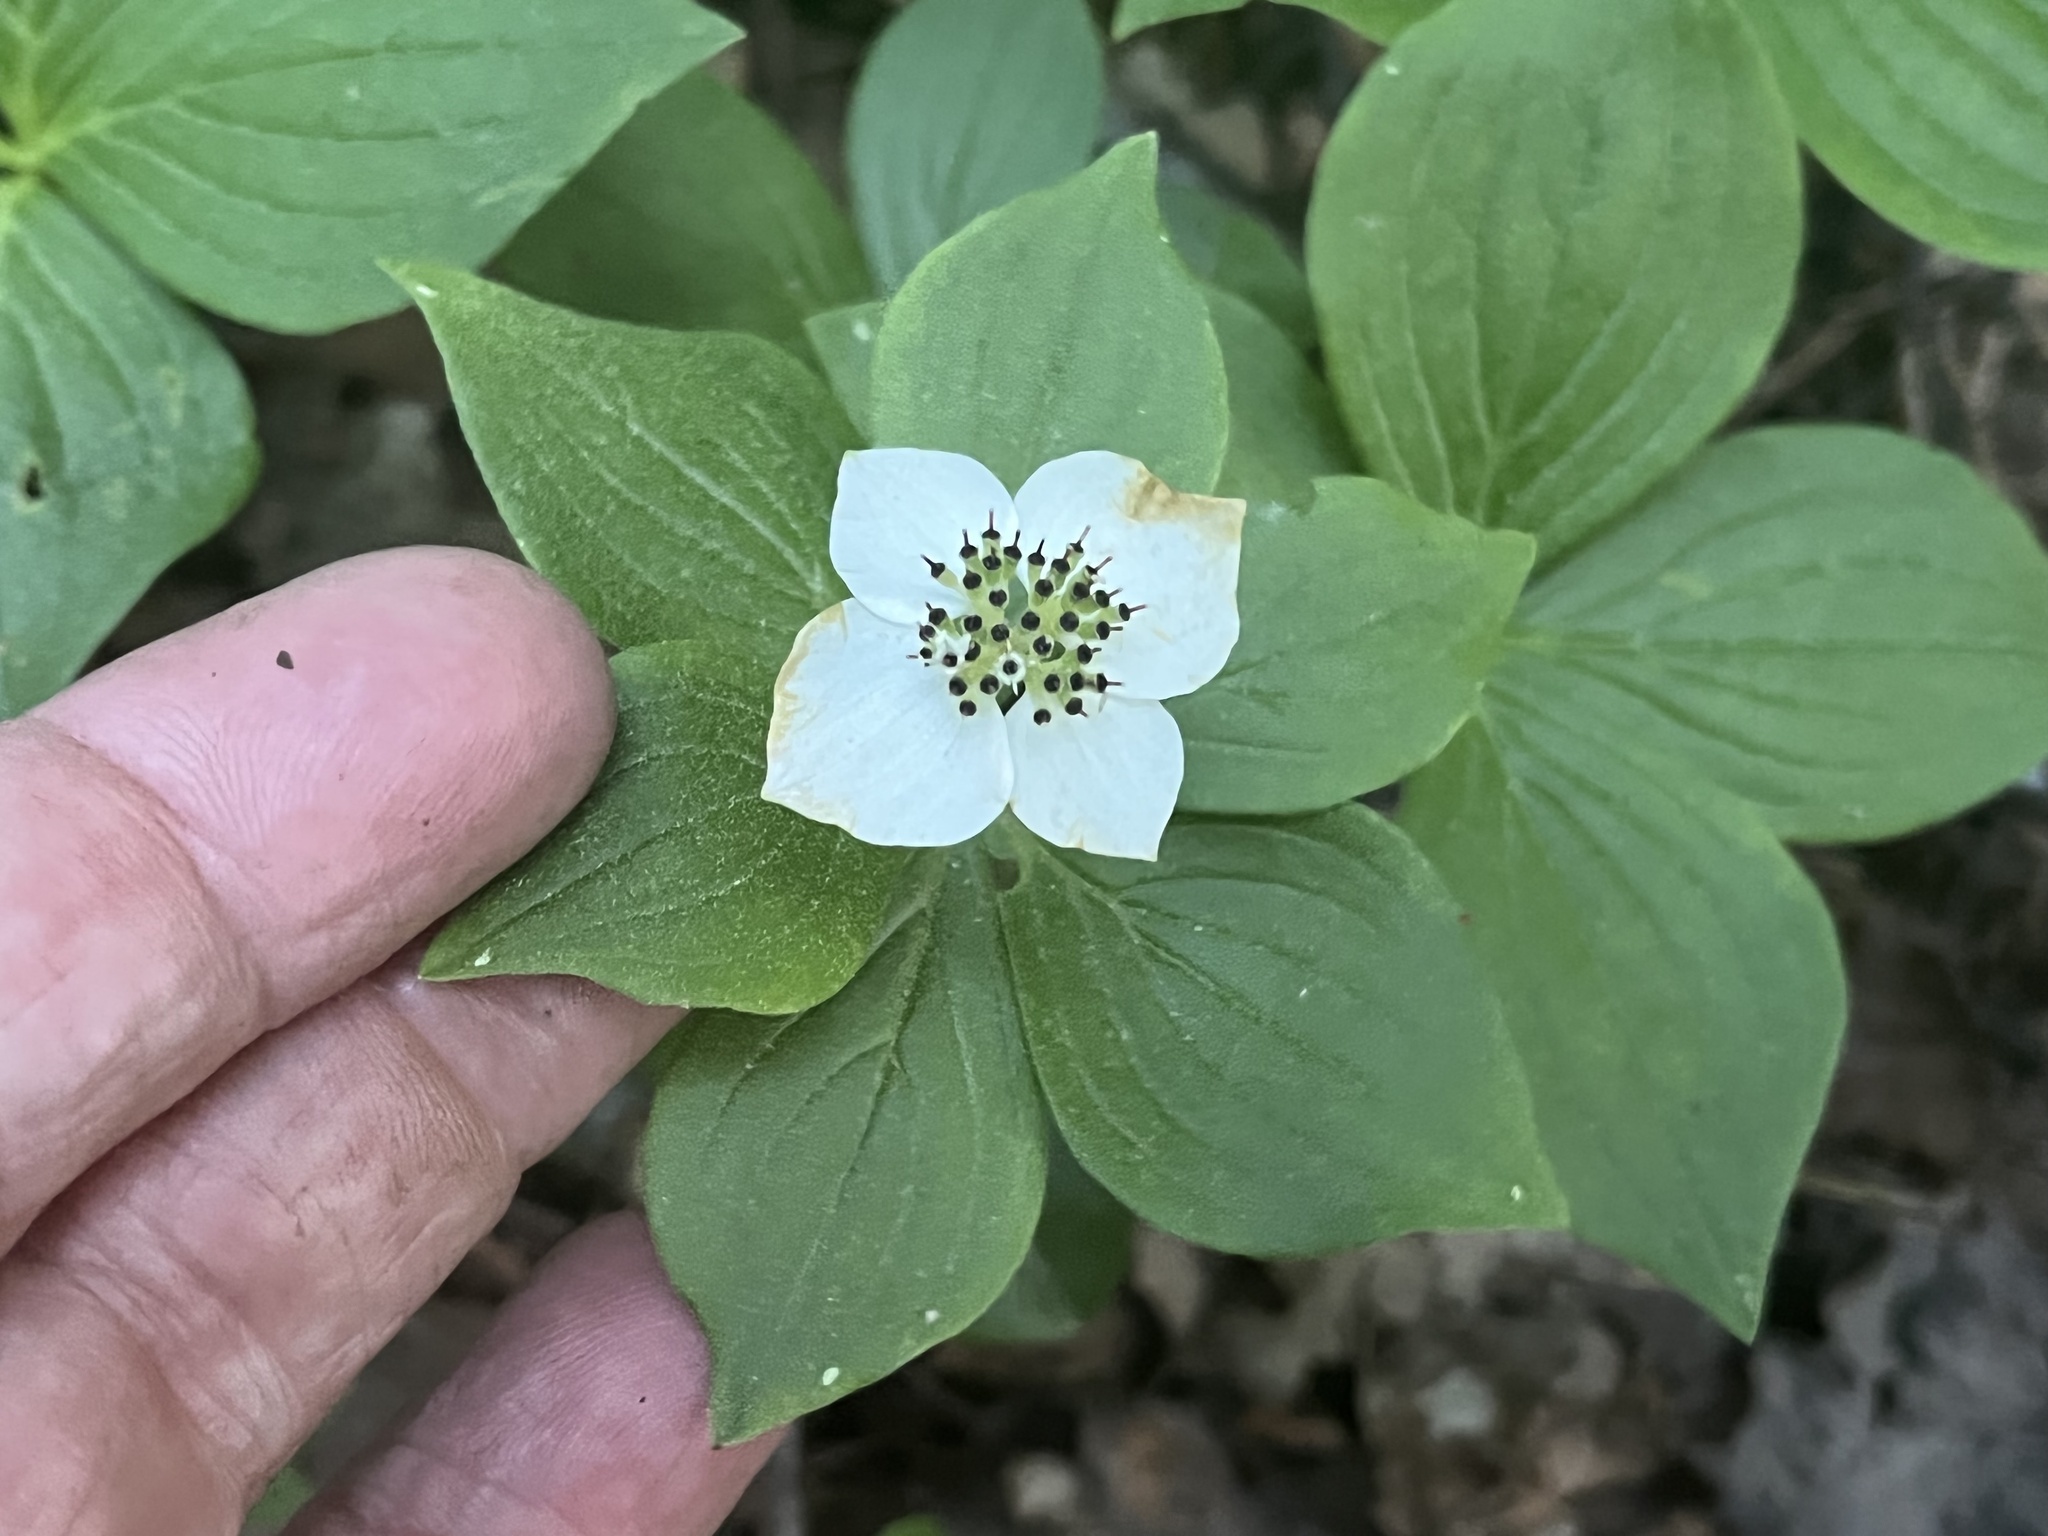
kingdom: Plantae
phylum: Tracheophyta
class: Magnoliopsida
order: Cornales
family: Cornaceae
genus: Cornus
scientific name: Cornus canadensis
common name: Creeping dogwood
